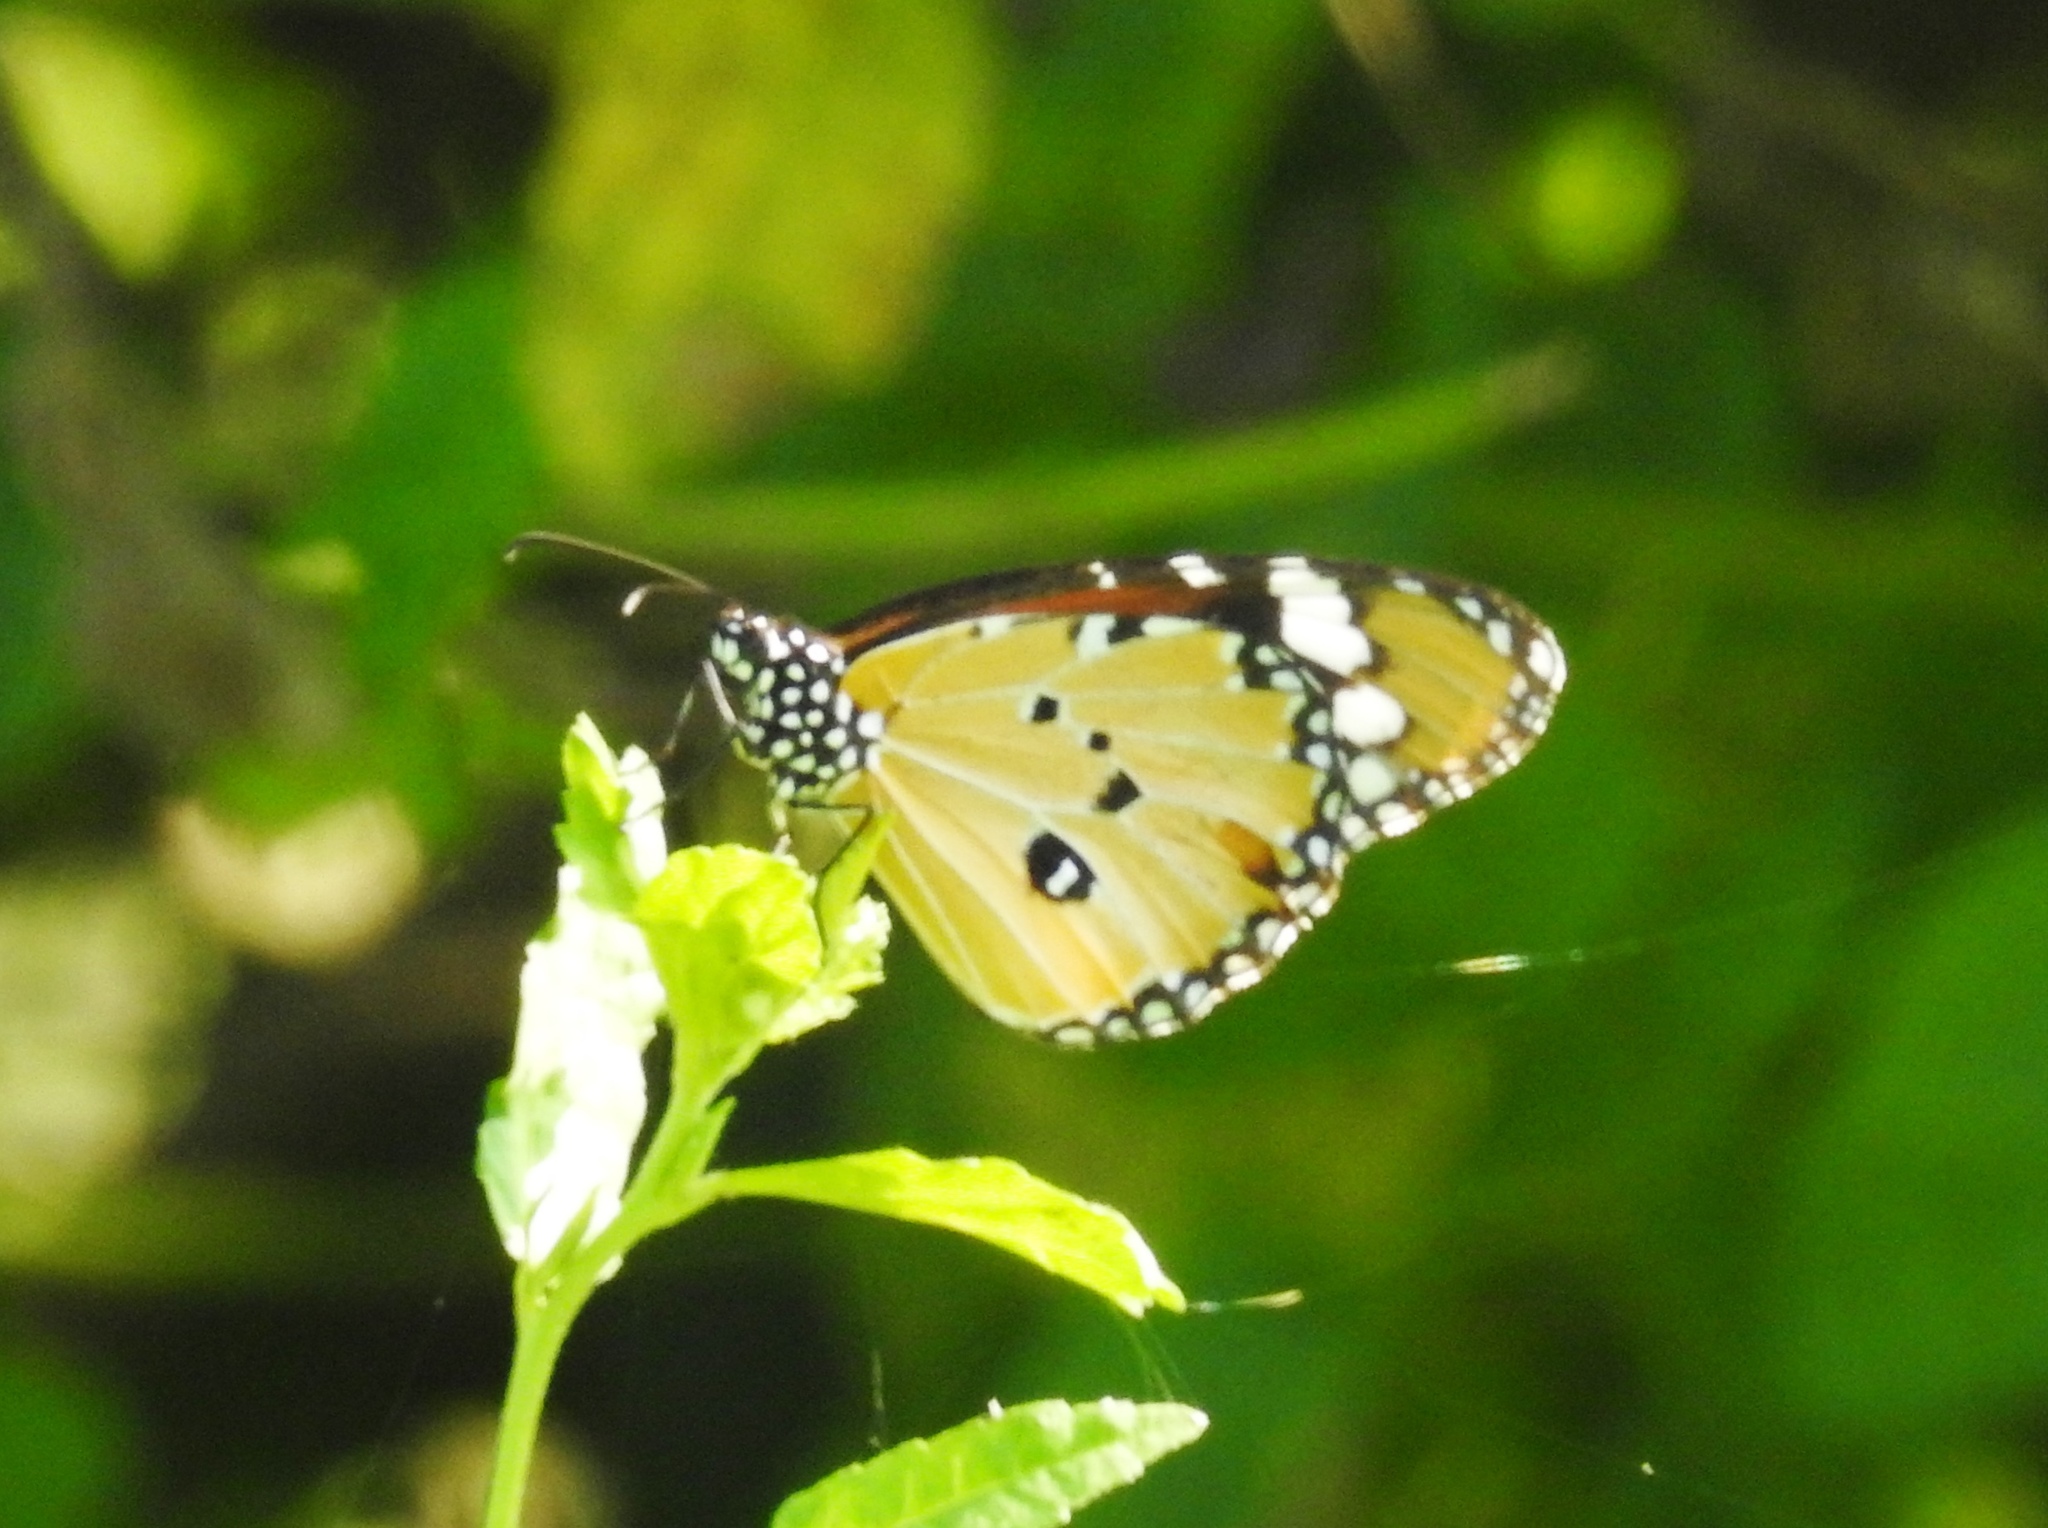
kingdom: Animalia
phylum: Arthropoda
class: Insecta
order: Lepidoptera
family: Nymphalidae
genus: Danaus
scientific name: Danaus chrysippus
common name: Plain tiger
